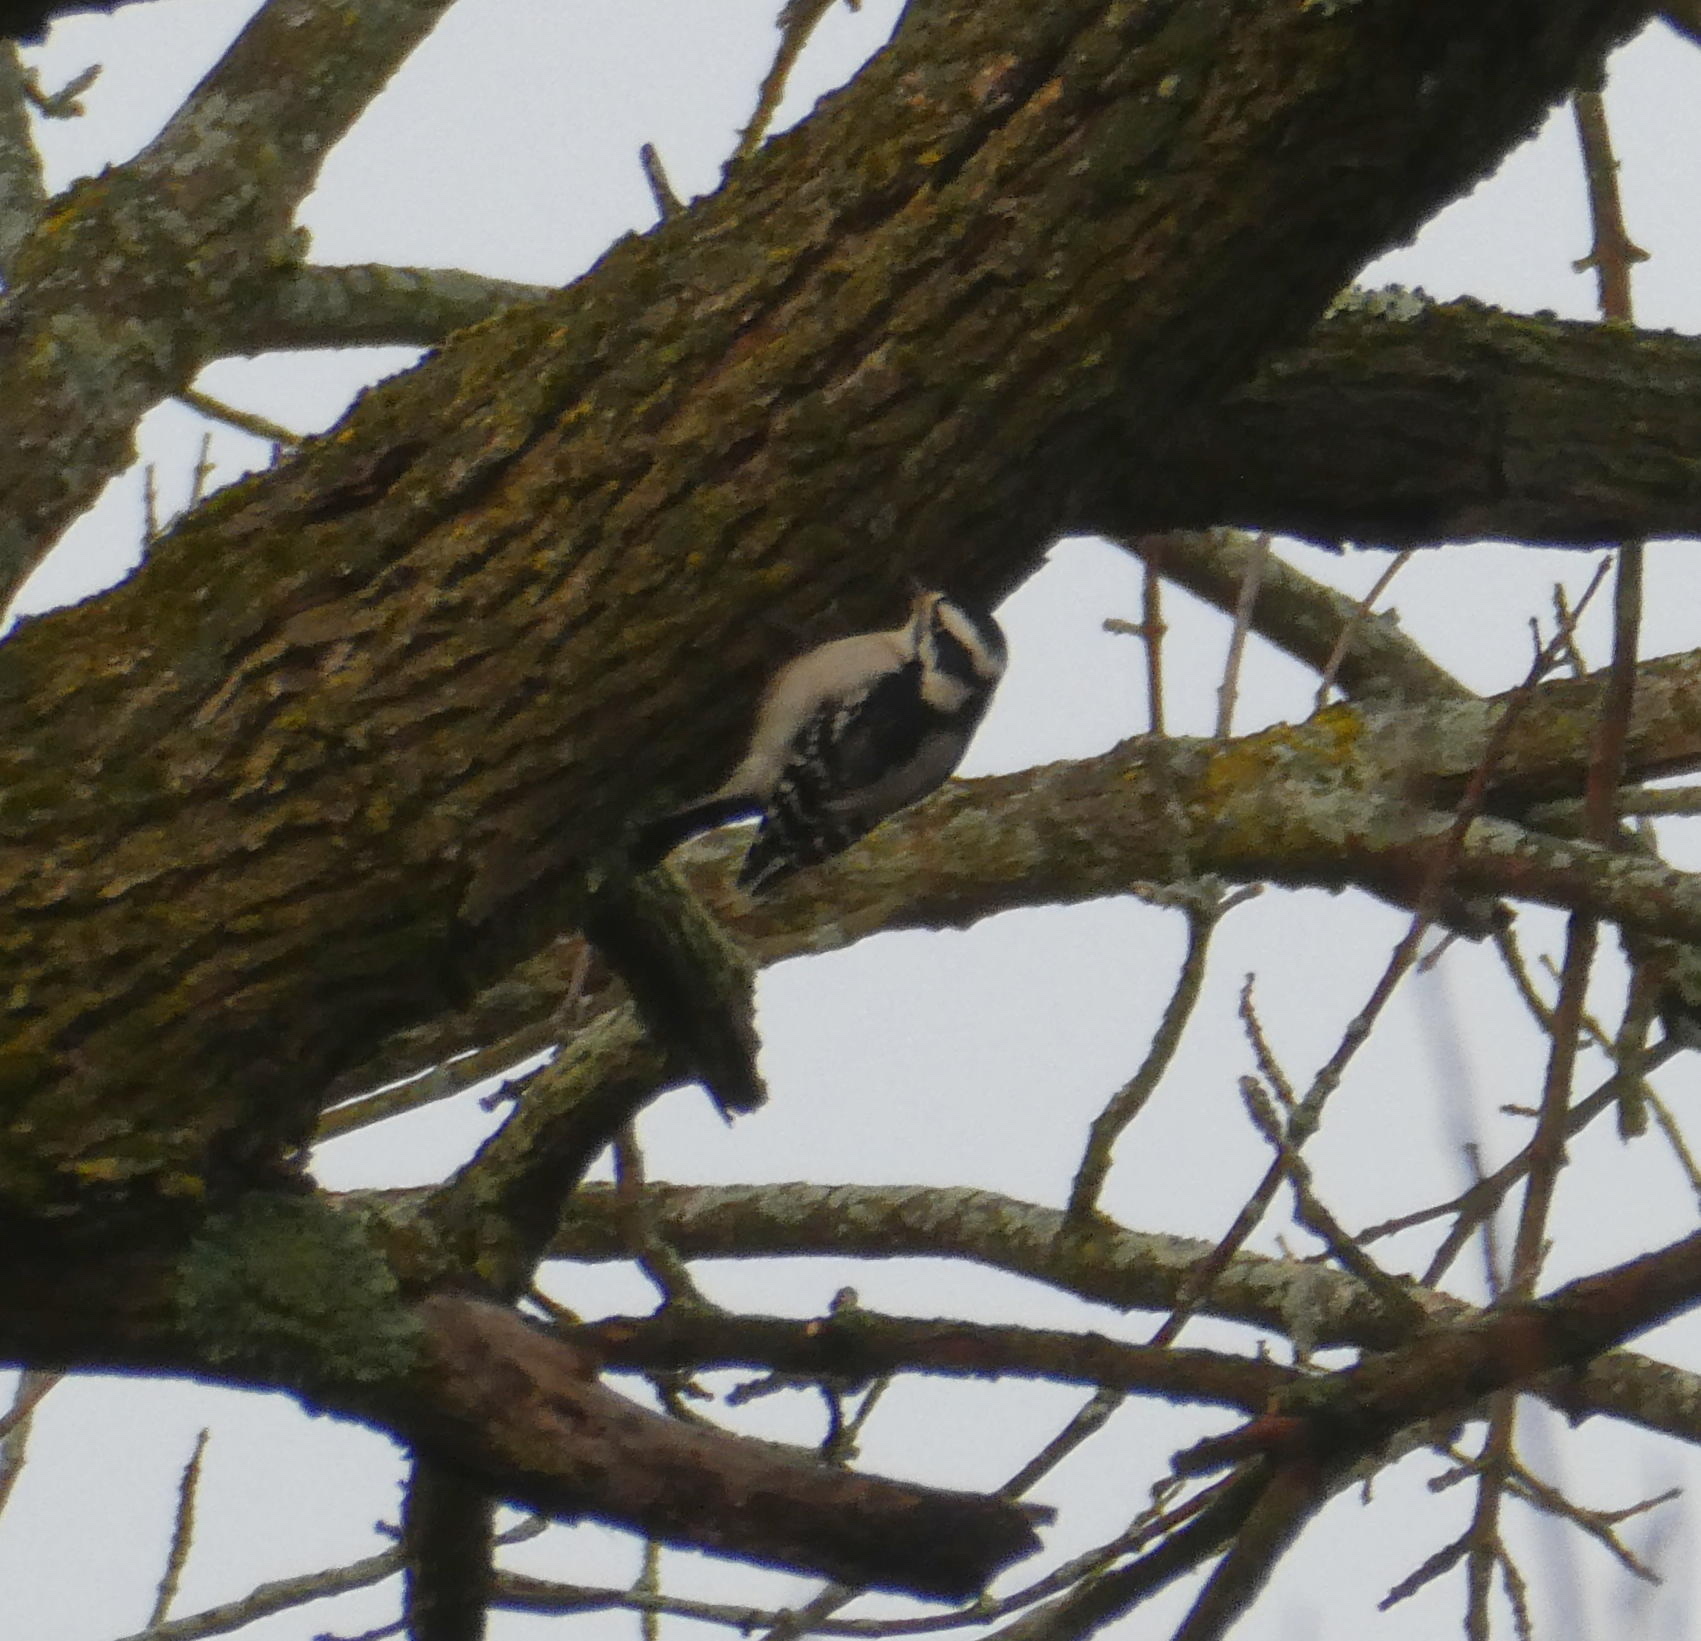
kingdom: Animalia
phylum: Chordata
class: Aves
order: Piciformes
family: Picidae
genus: Dryobates
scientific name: Dryobates pubescens
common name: Downy woodpecker
